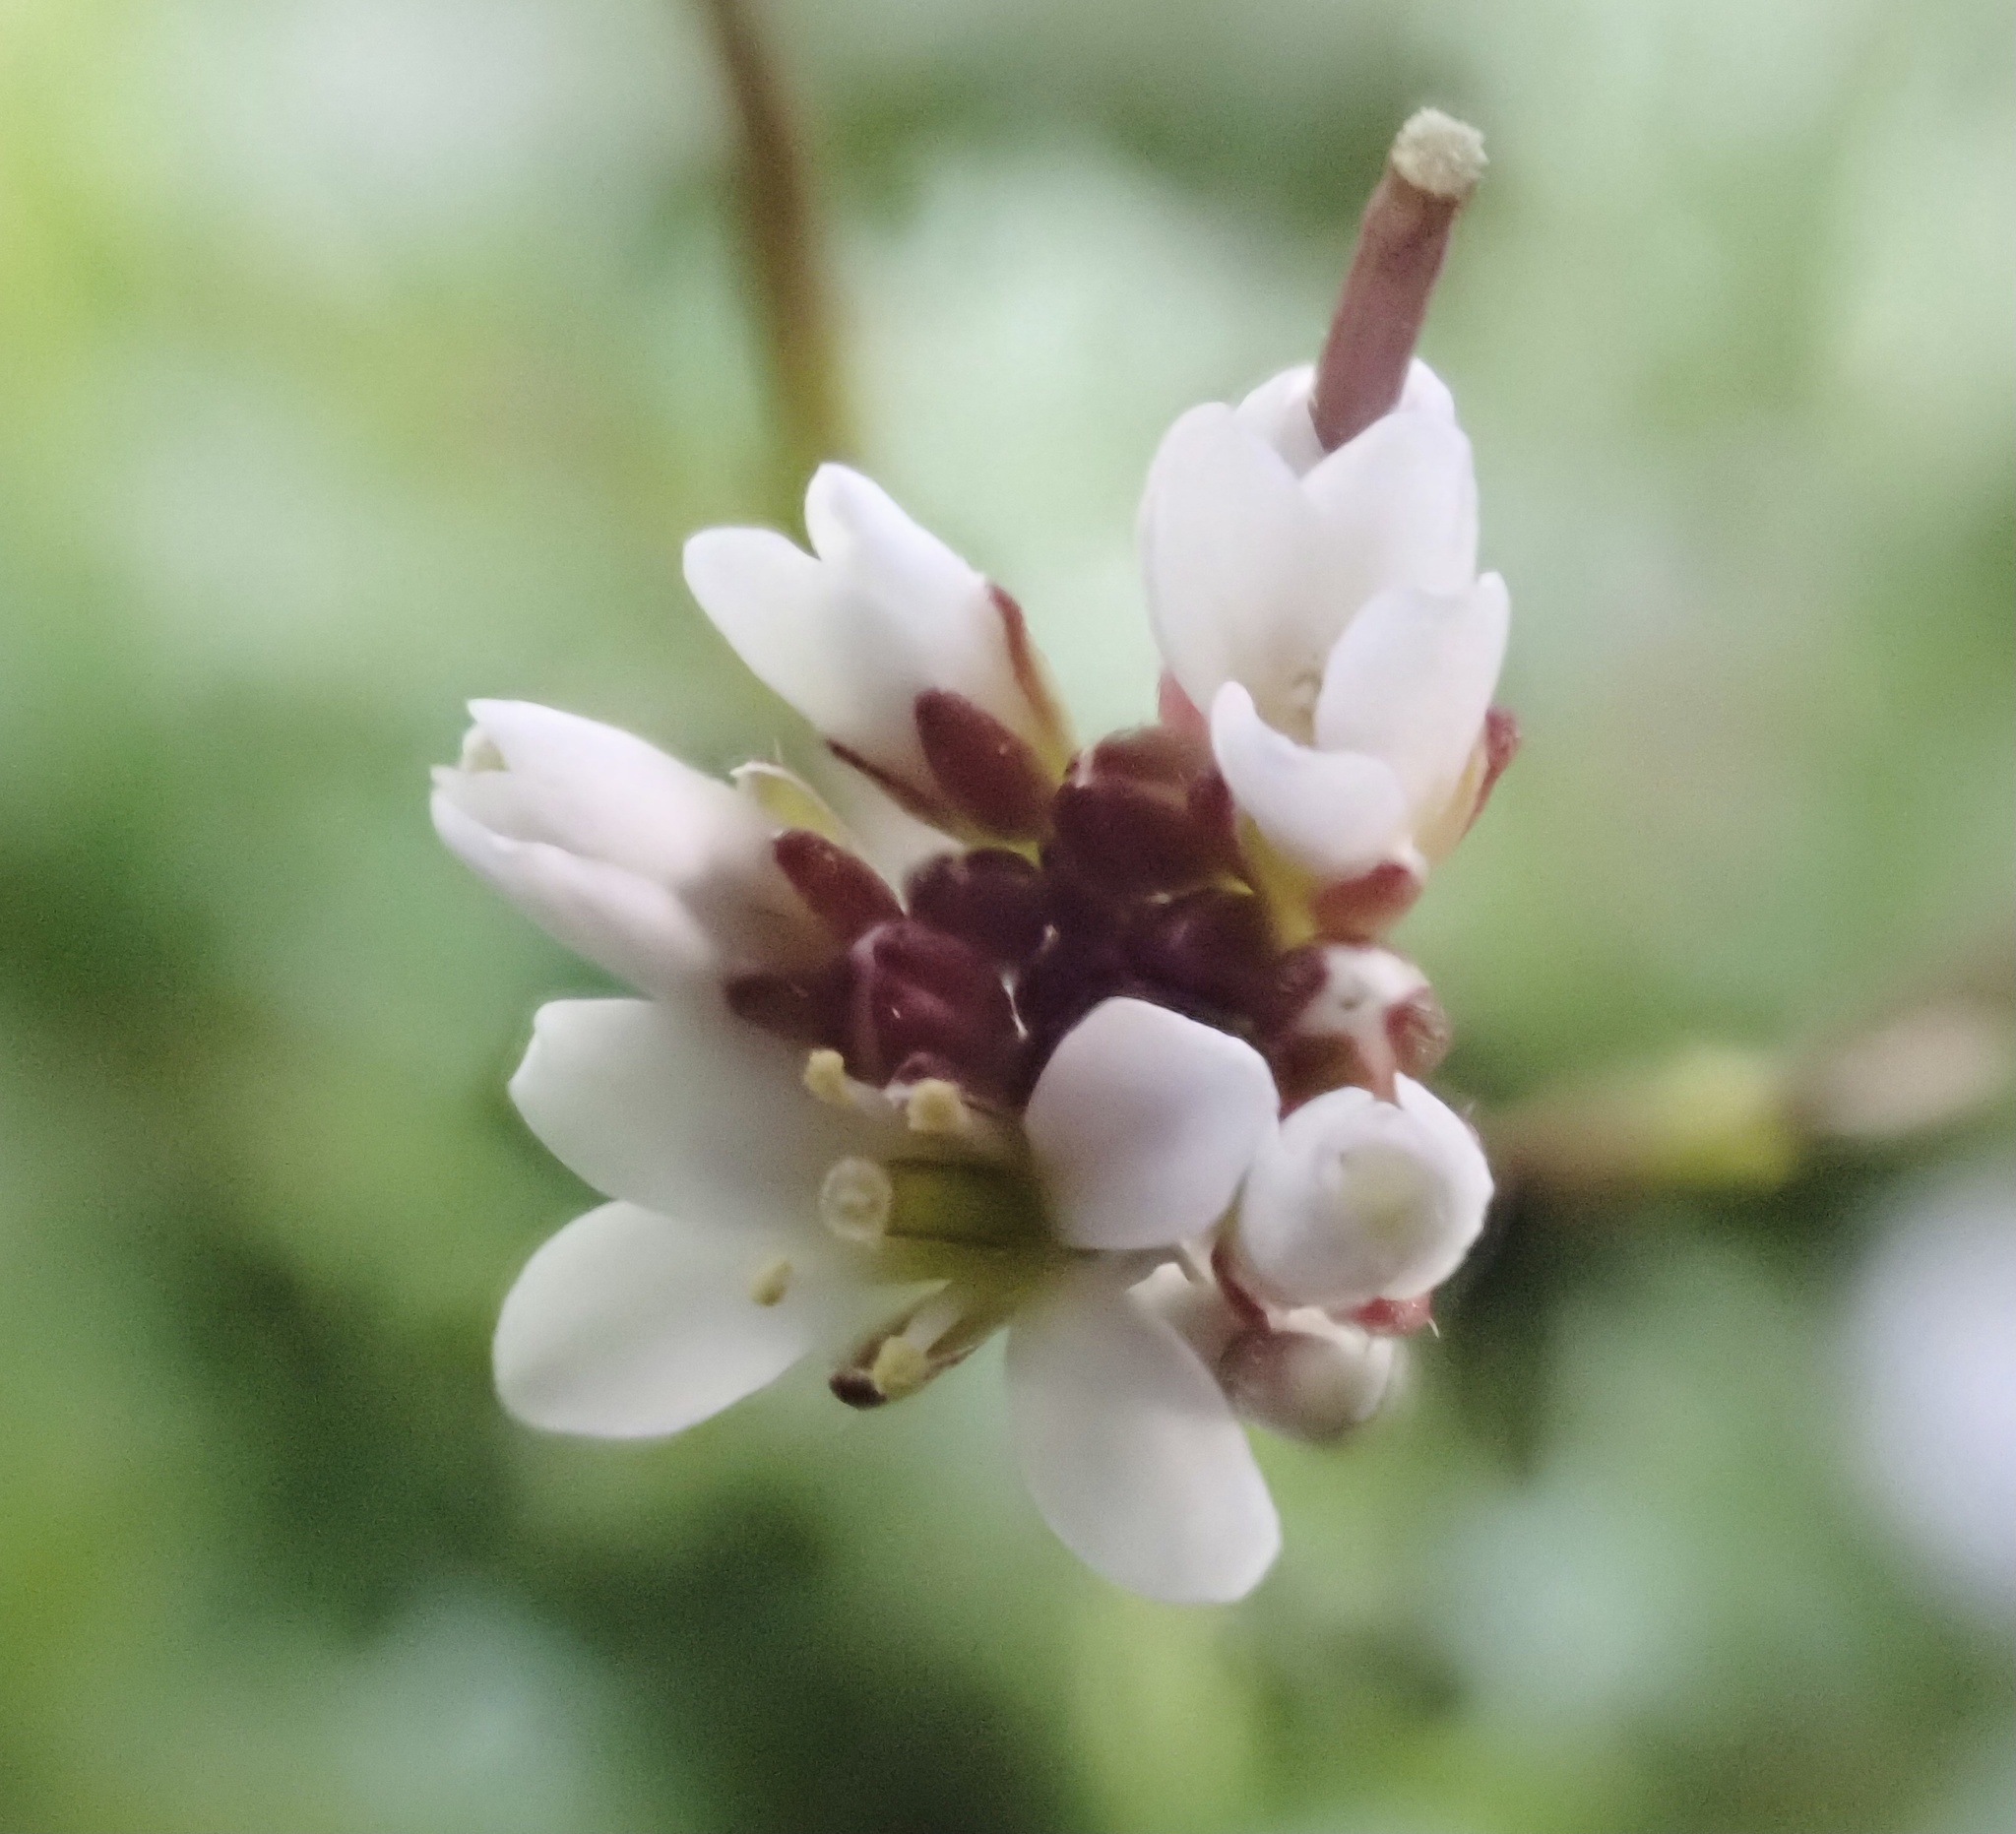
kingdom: Plantae
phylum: Tracheophyta
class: Magnoliopsida
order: Brassicales
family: Brassicaceae
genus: Cardamine
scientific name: Cardamine hirsuta
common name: Hairy bittercress
